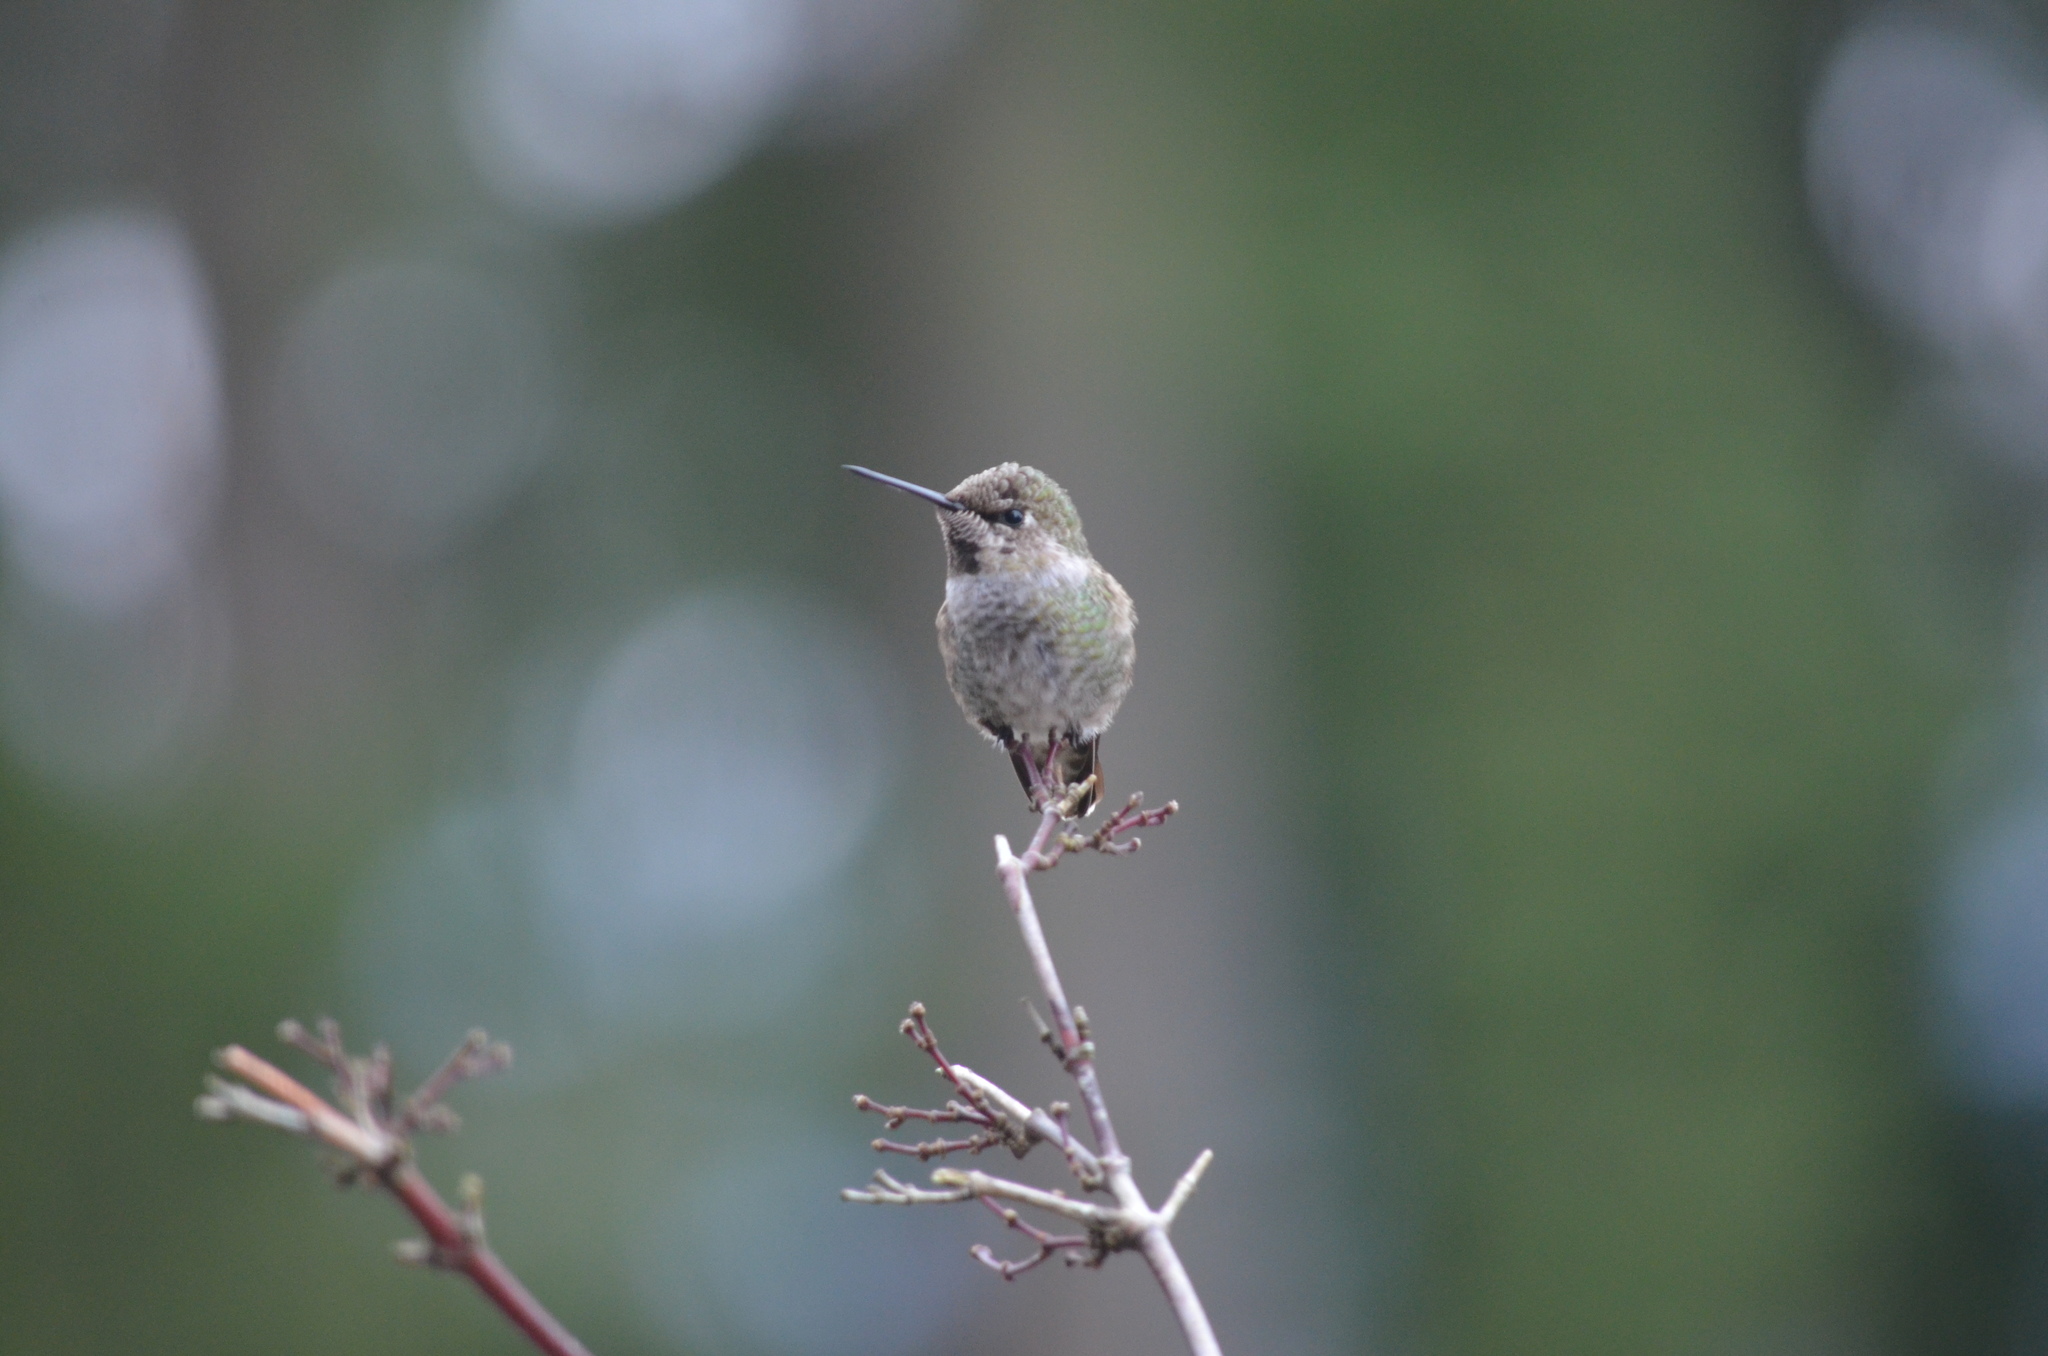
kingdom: Animalia
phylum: Chordata
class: Aves
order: Apodiformes
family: Trochilidae
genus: Calypte
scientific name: Calypte anna
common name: Anna's hummingbird
